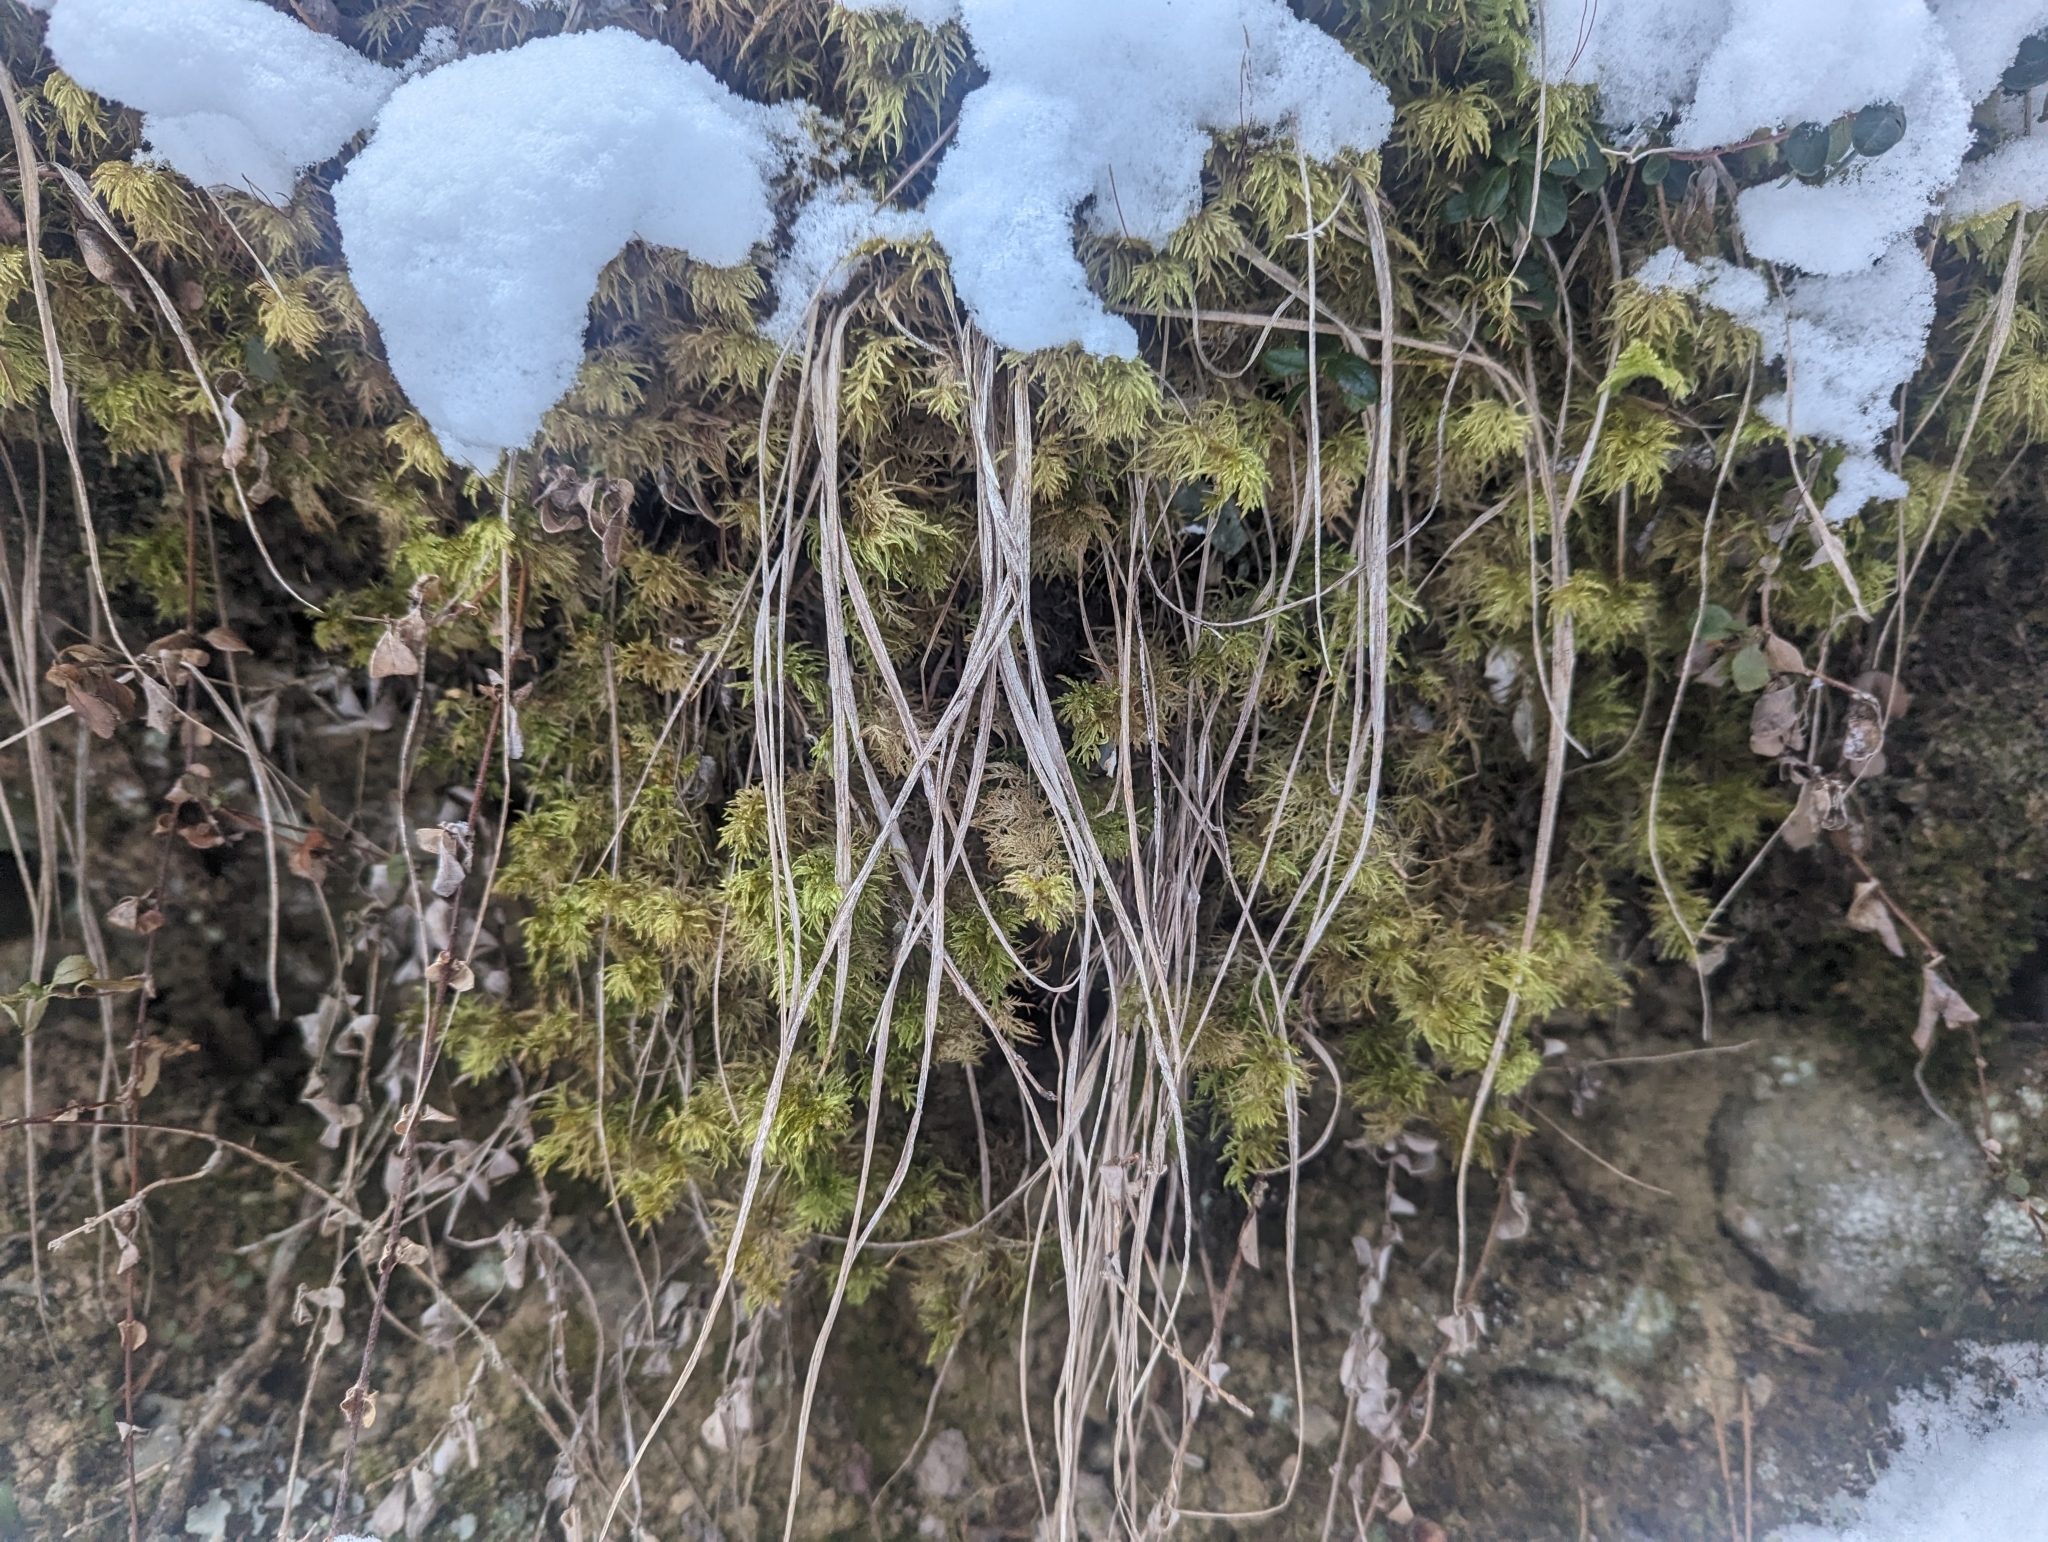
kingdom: Plantae
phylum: Bryophyta
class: Bryopsida
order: Hypnales
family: Hylocomiaceae
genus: Hylocomium
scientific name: Hylocomium splendens
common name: Stairstep moss
